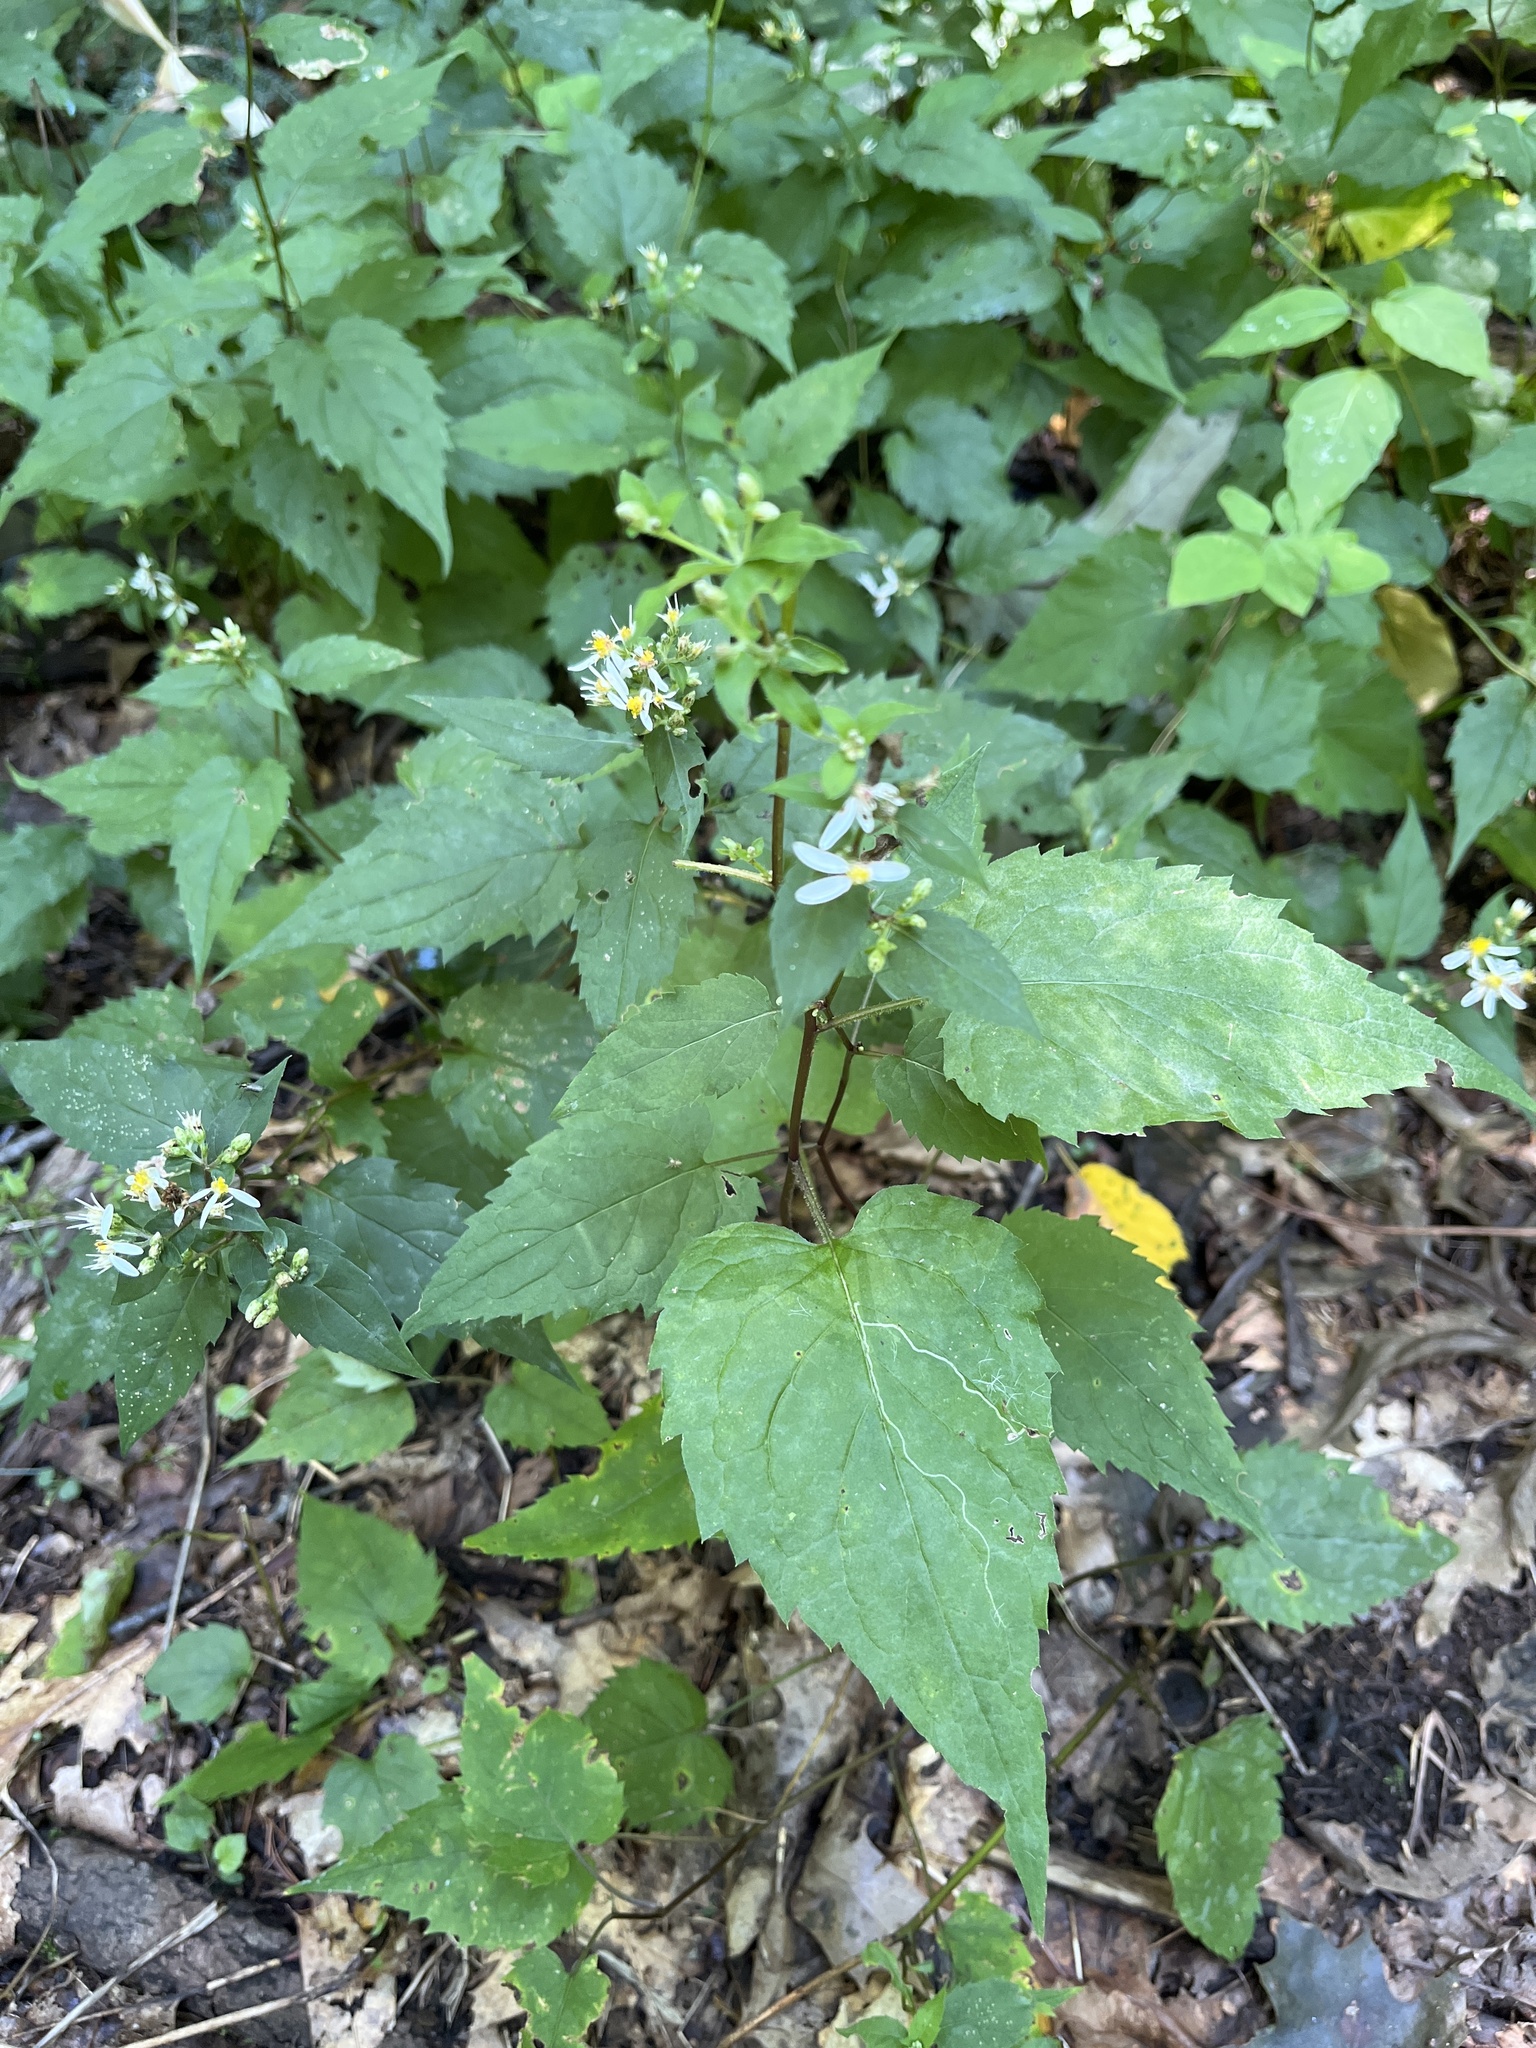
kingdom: Plantae
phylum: Tracheophyta
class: Magnoliopsida
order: Asterales
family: Asteraceae
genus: Eurybia
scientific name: Eurybia divaricata
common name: White wood aster
